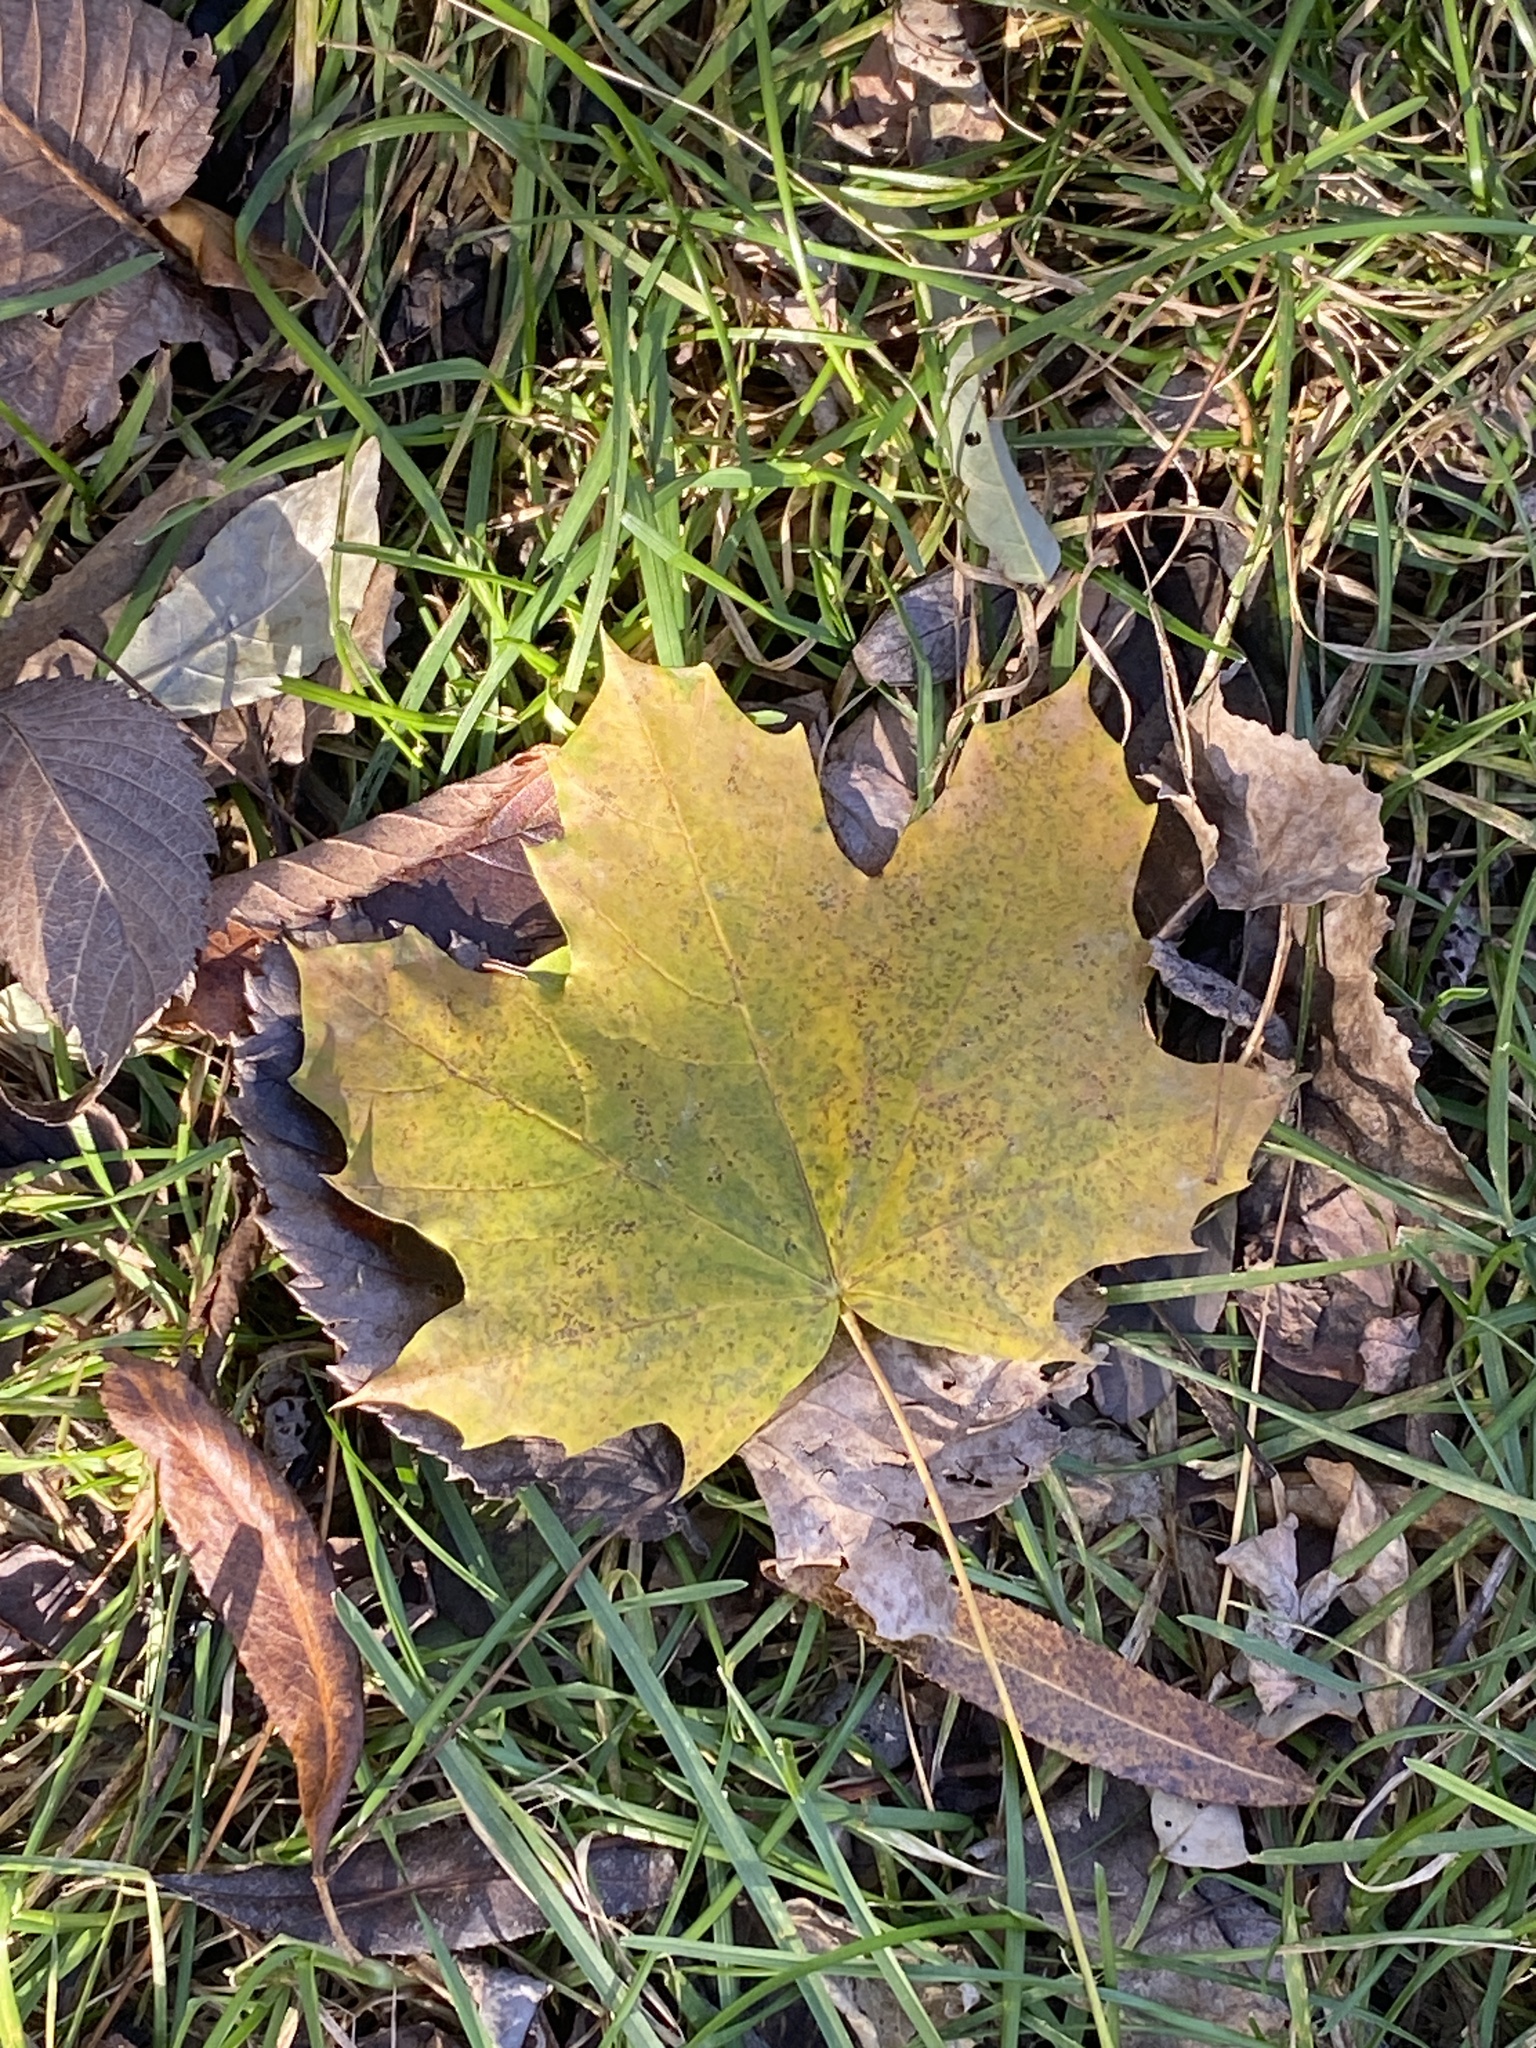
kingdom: Plantae
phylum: Tracheophyta
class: Magnoliopsida
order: Sapindales
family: Sapindaceae
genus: Acer
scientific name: Acer platanoides
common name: Norway maple
